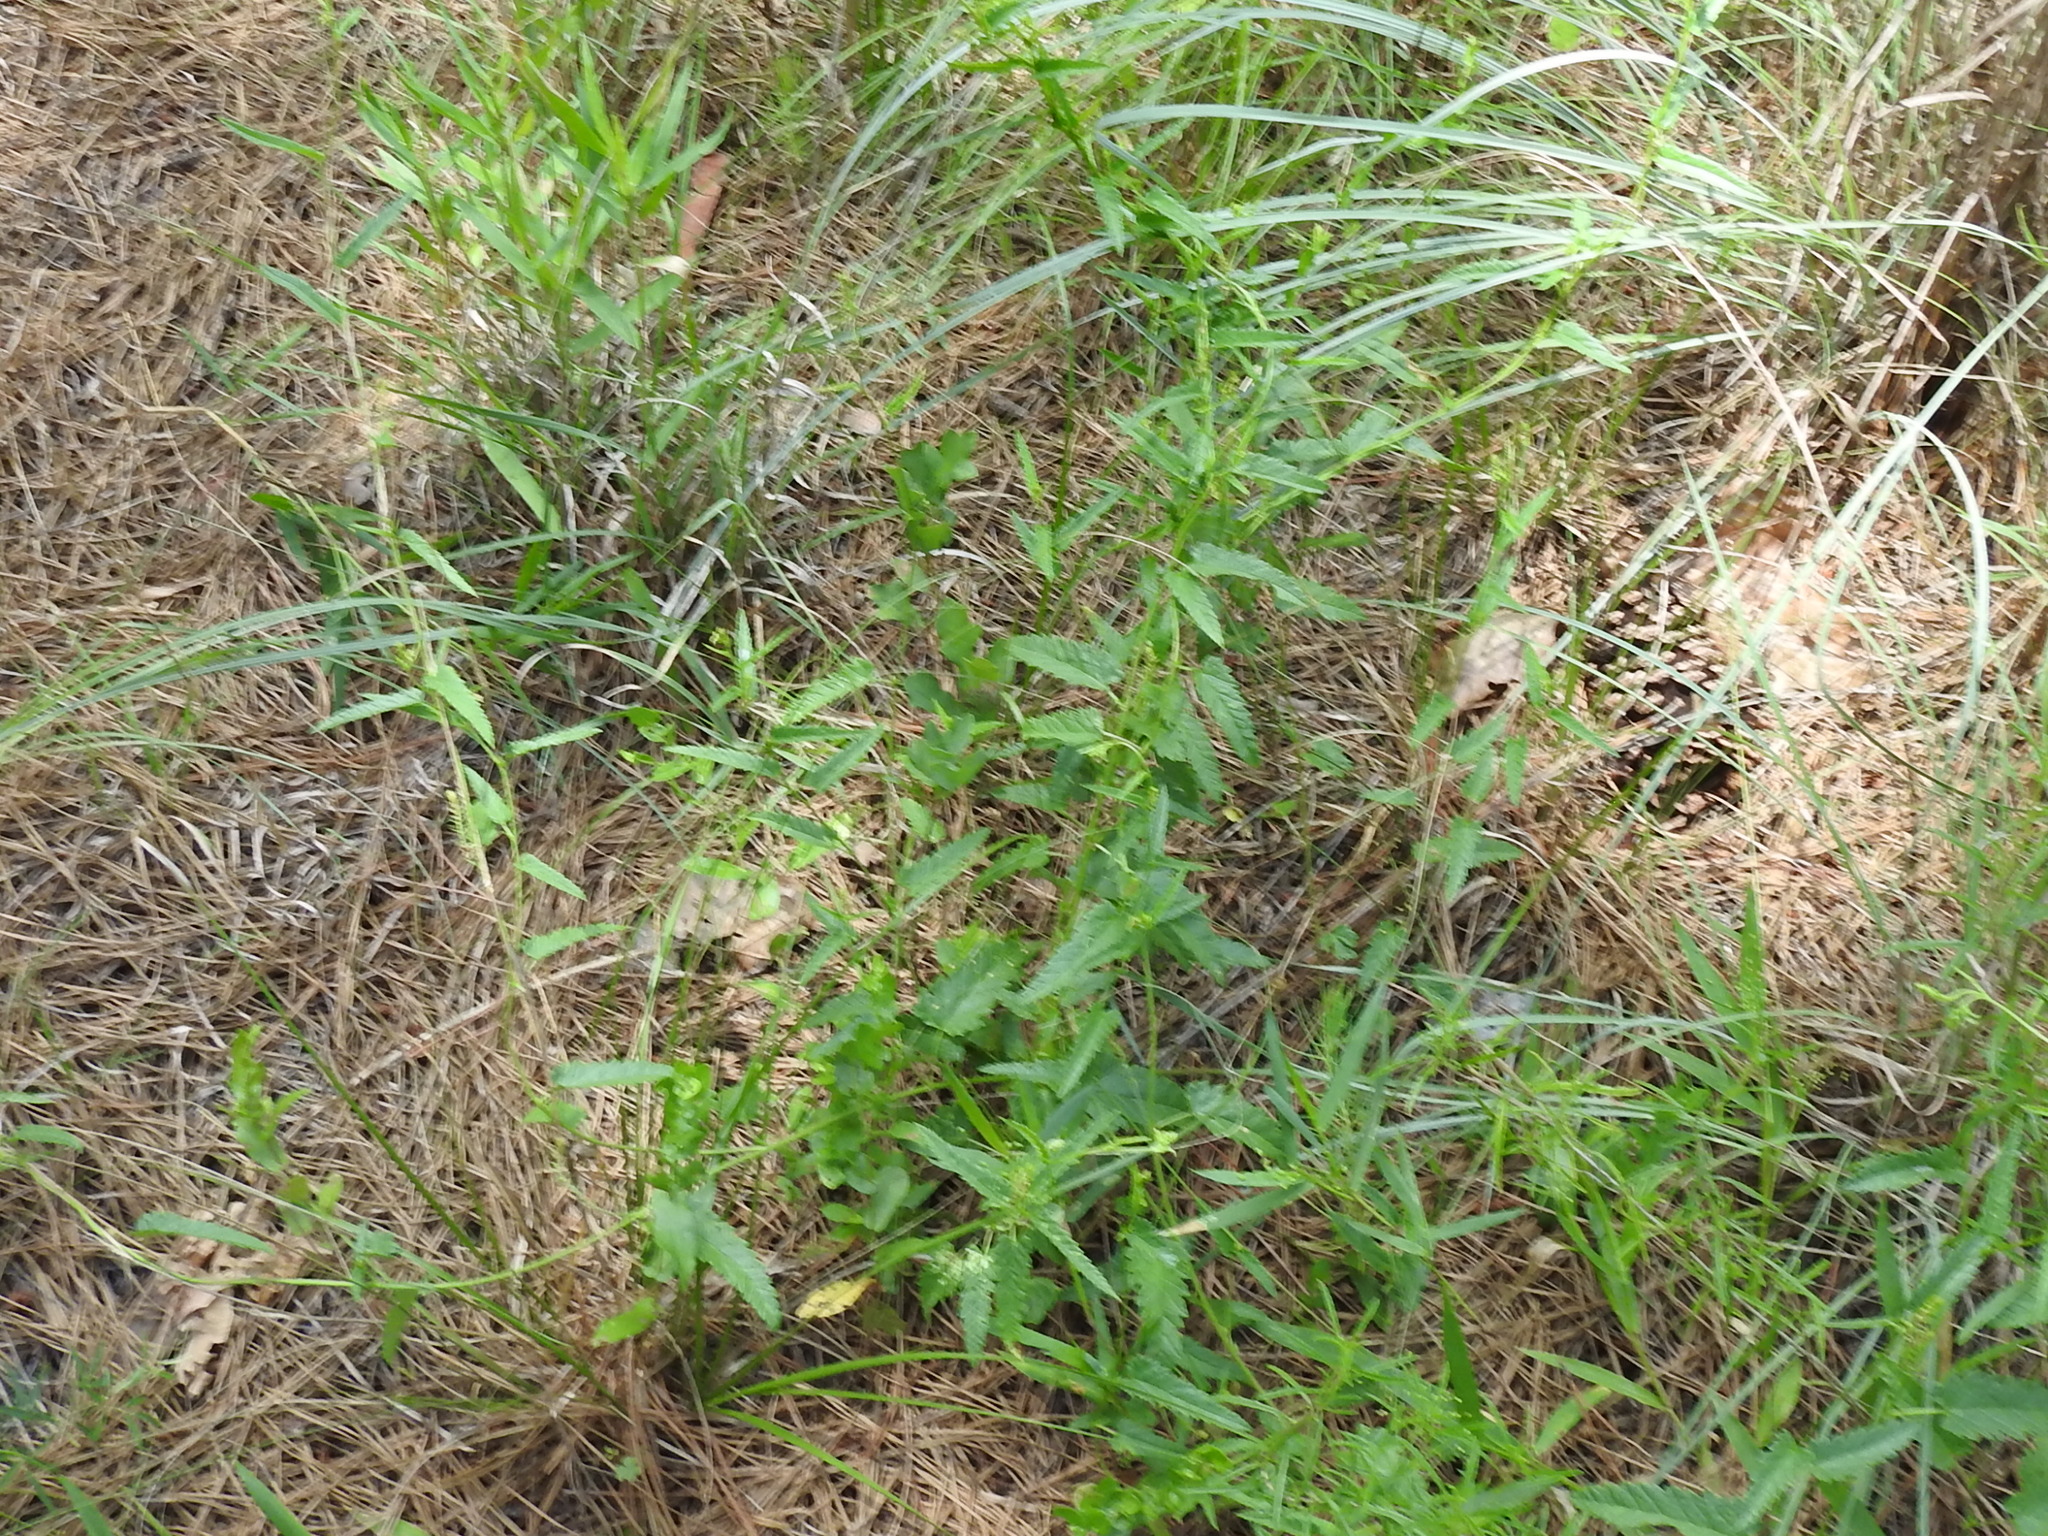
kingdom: Plantae
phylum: Tracheophyta
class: Magnoliopsida
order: Malpighiales
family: Euphorbiaceae
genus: Tragia
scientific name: Tragia urticifolia
